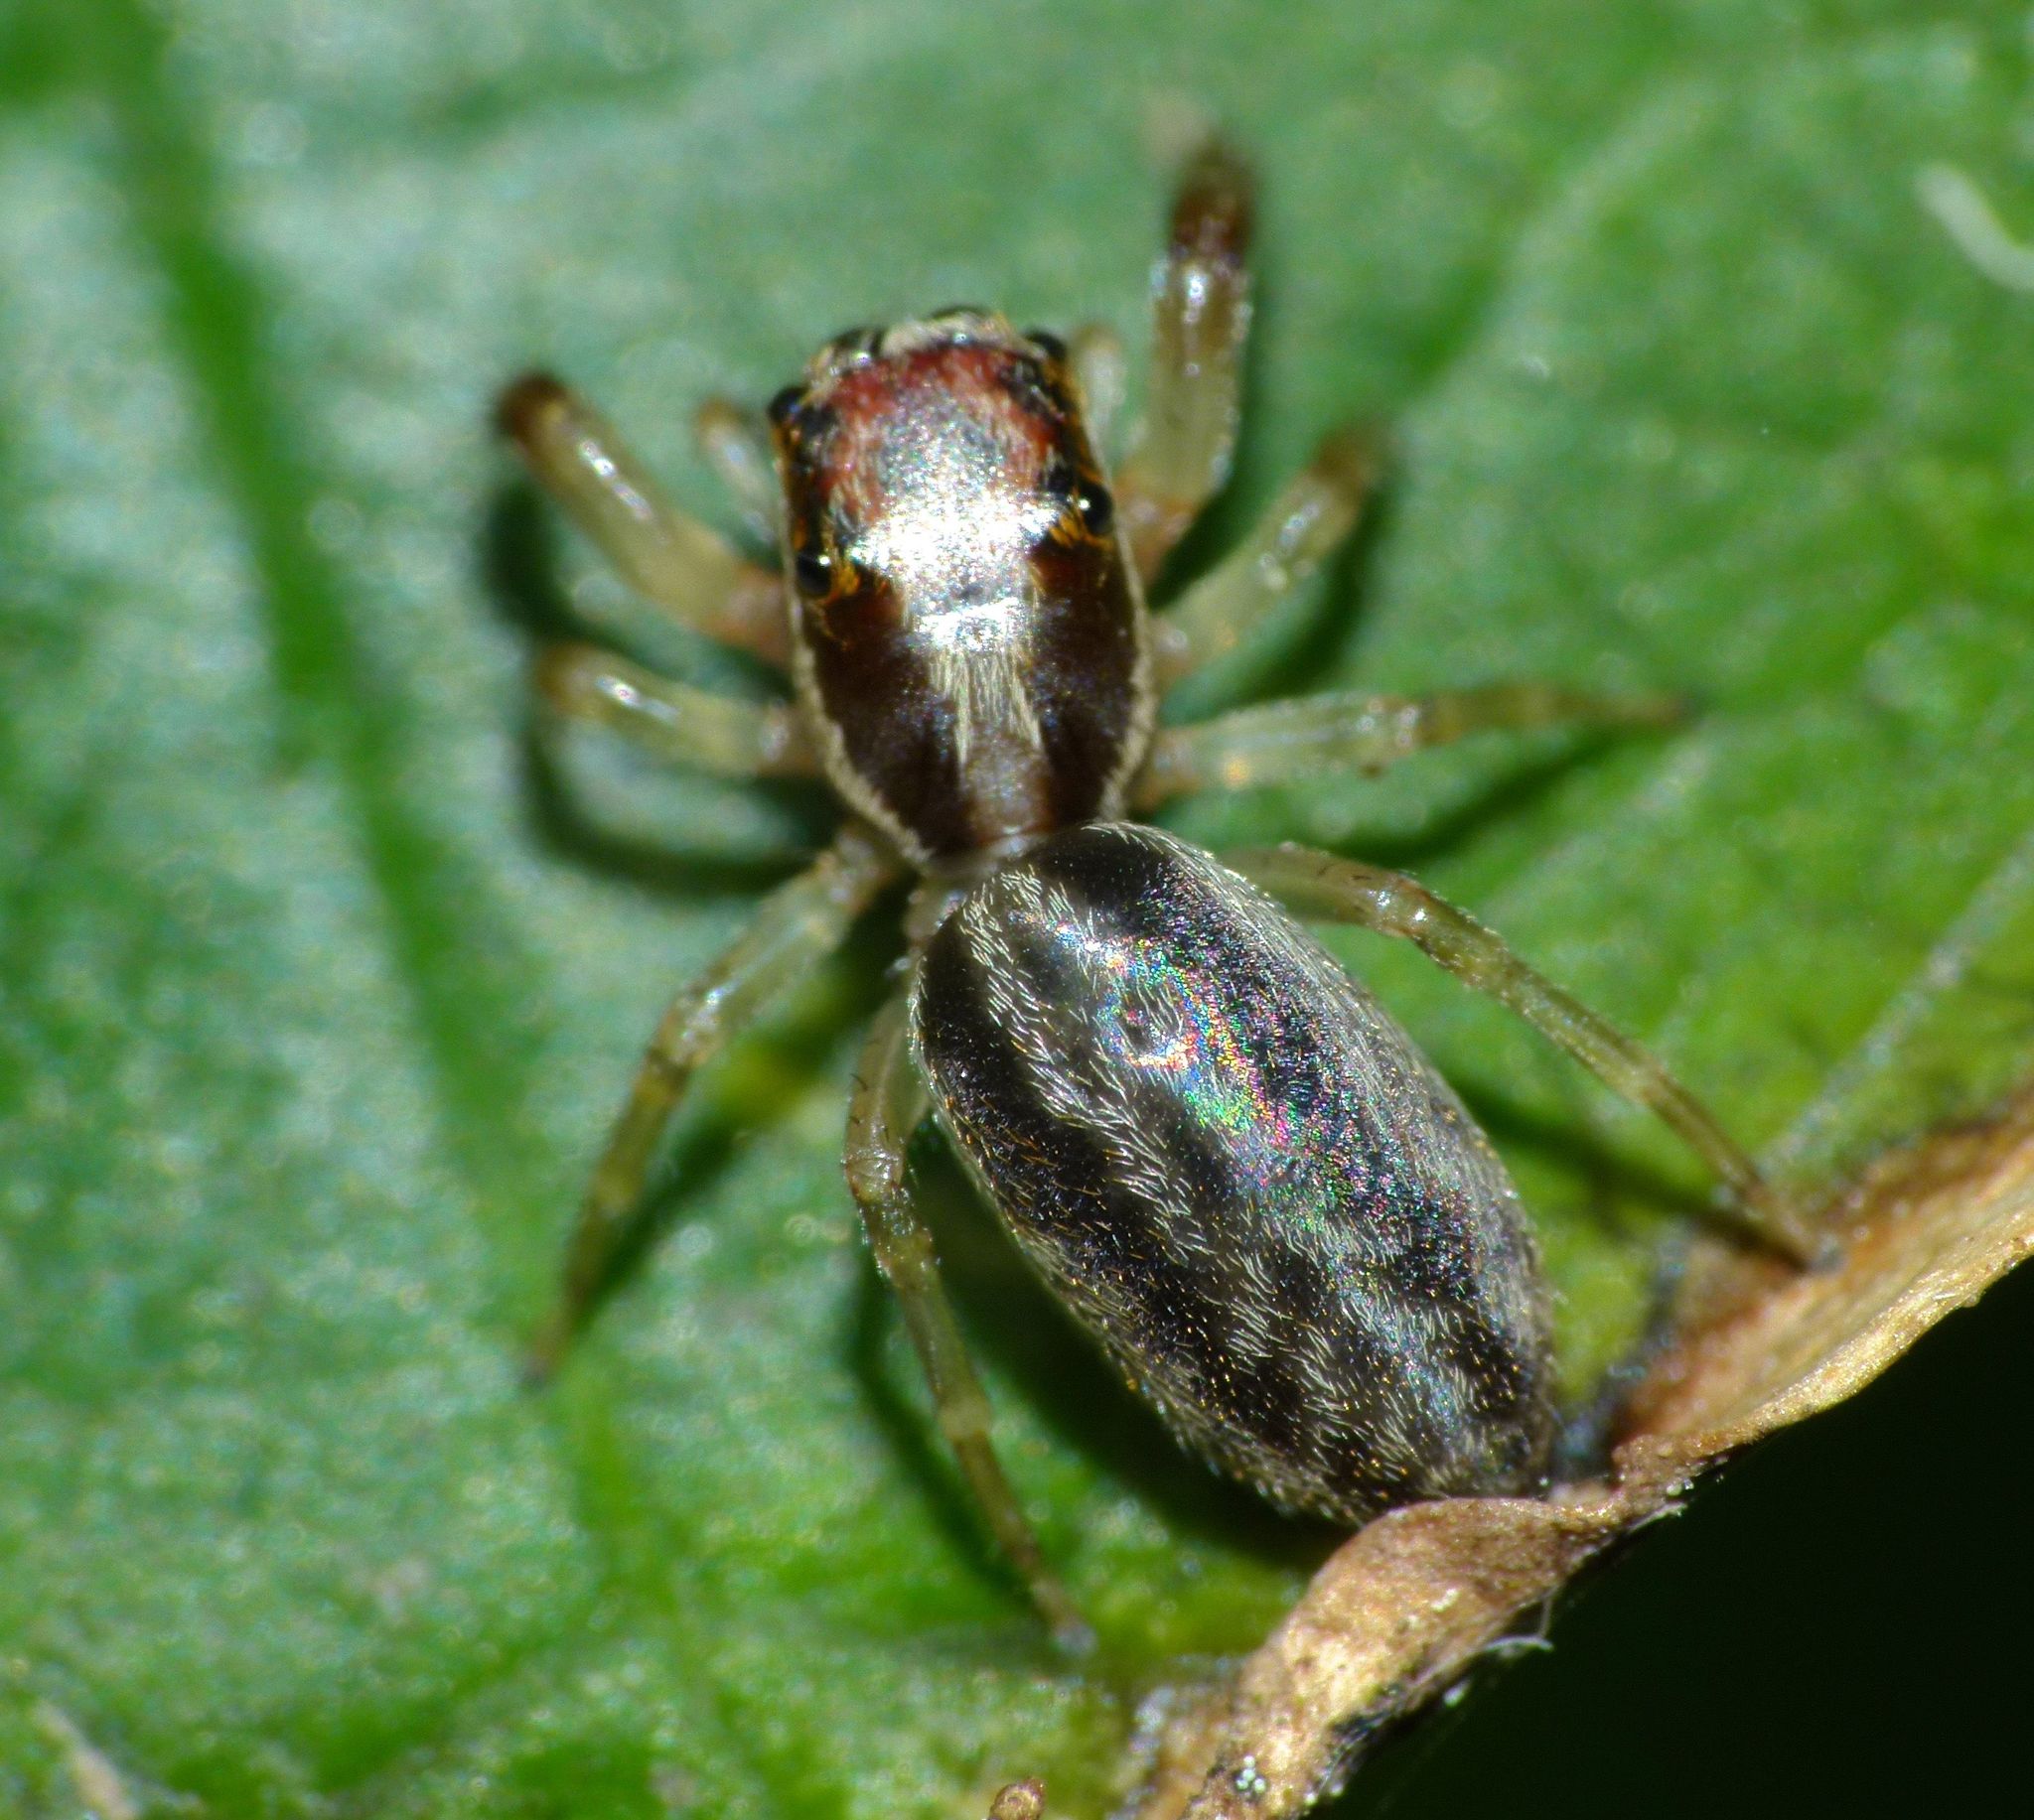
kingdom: Animalia
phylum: Arthropoda
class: Arachnida
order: Araneae
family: Salticidae
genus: Trite
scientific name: Trite mustilina
